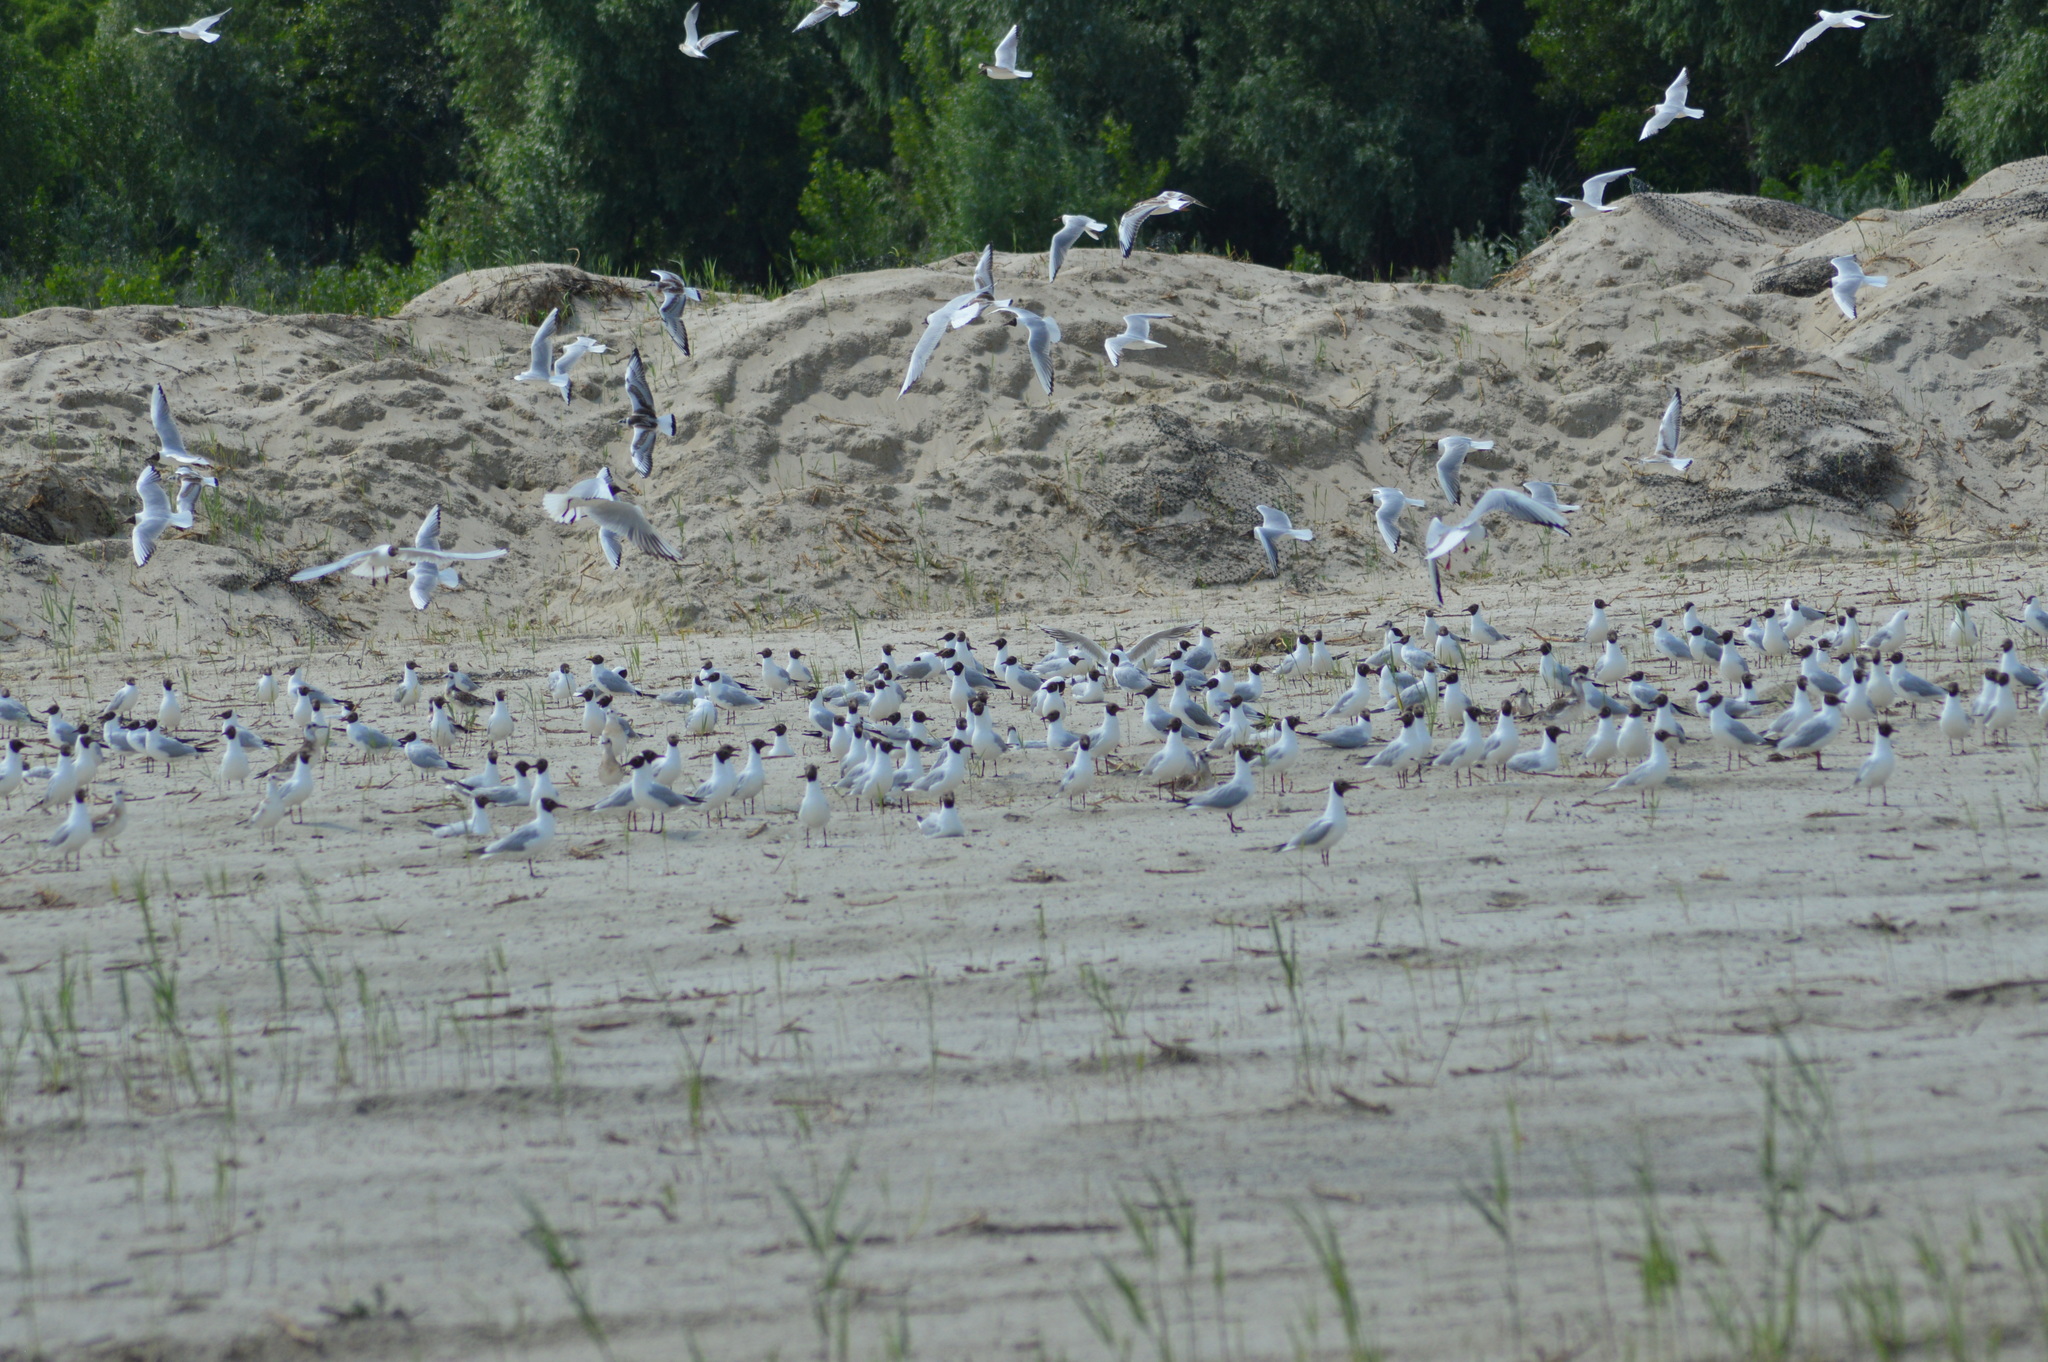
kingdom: Animalia
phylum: Chordata
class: Aves
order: Charadriiformes
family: Laridae
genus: Chroicocephalus
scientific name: Chroicocephalus ridibundus
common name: Black-headed gull
